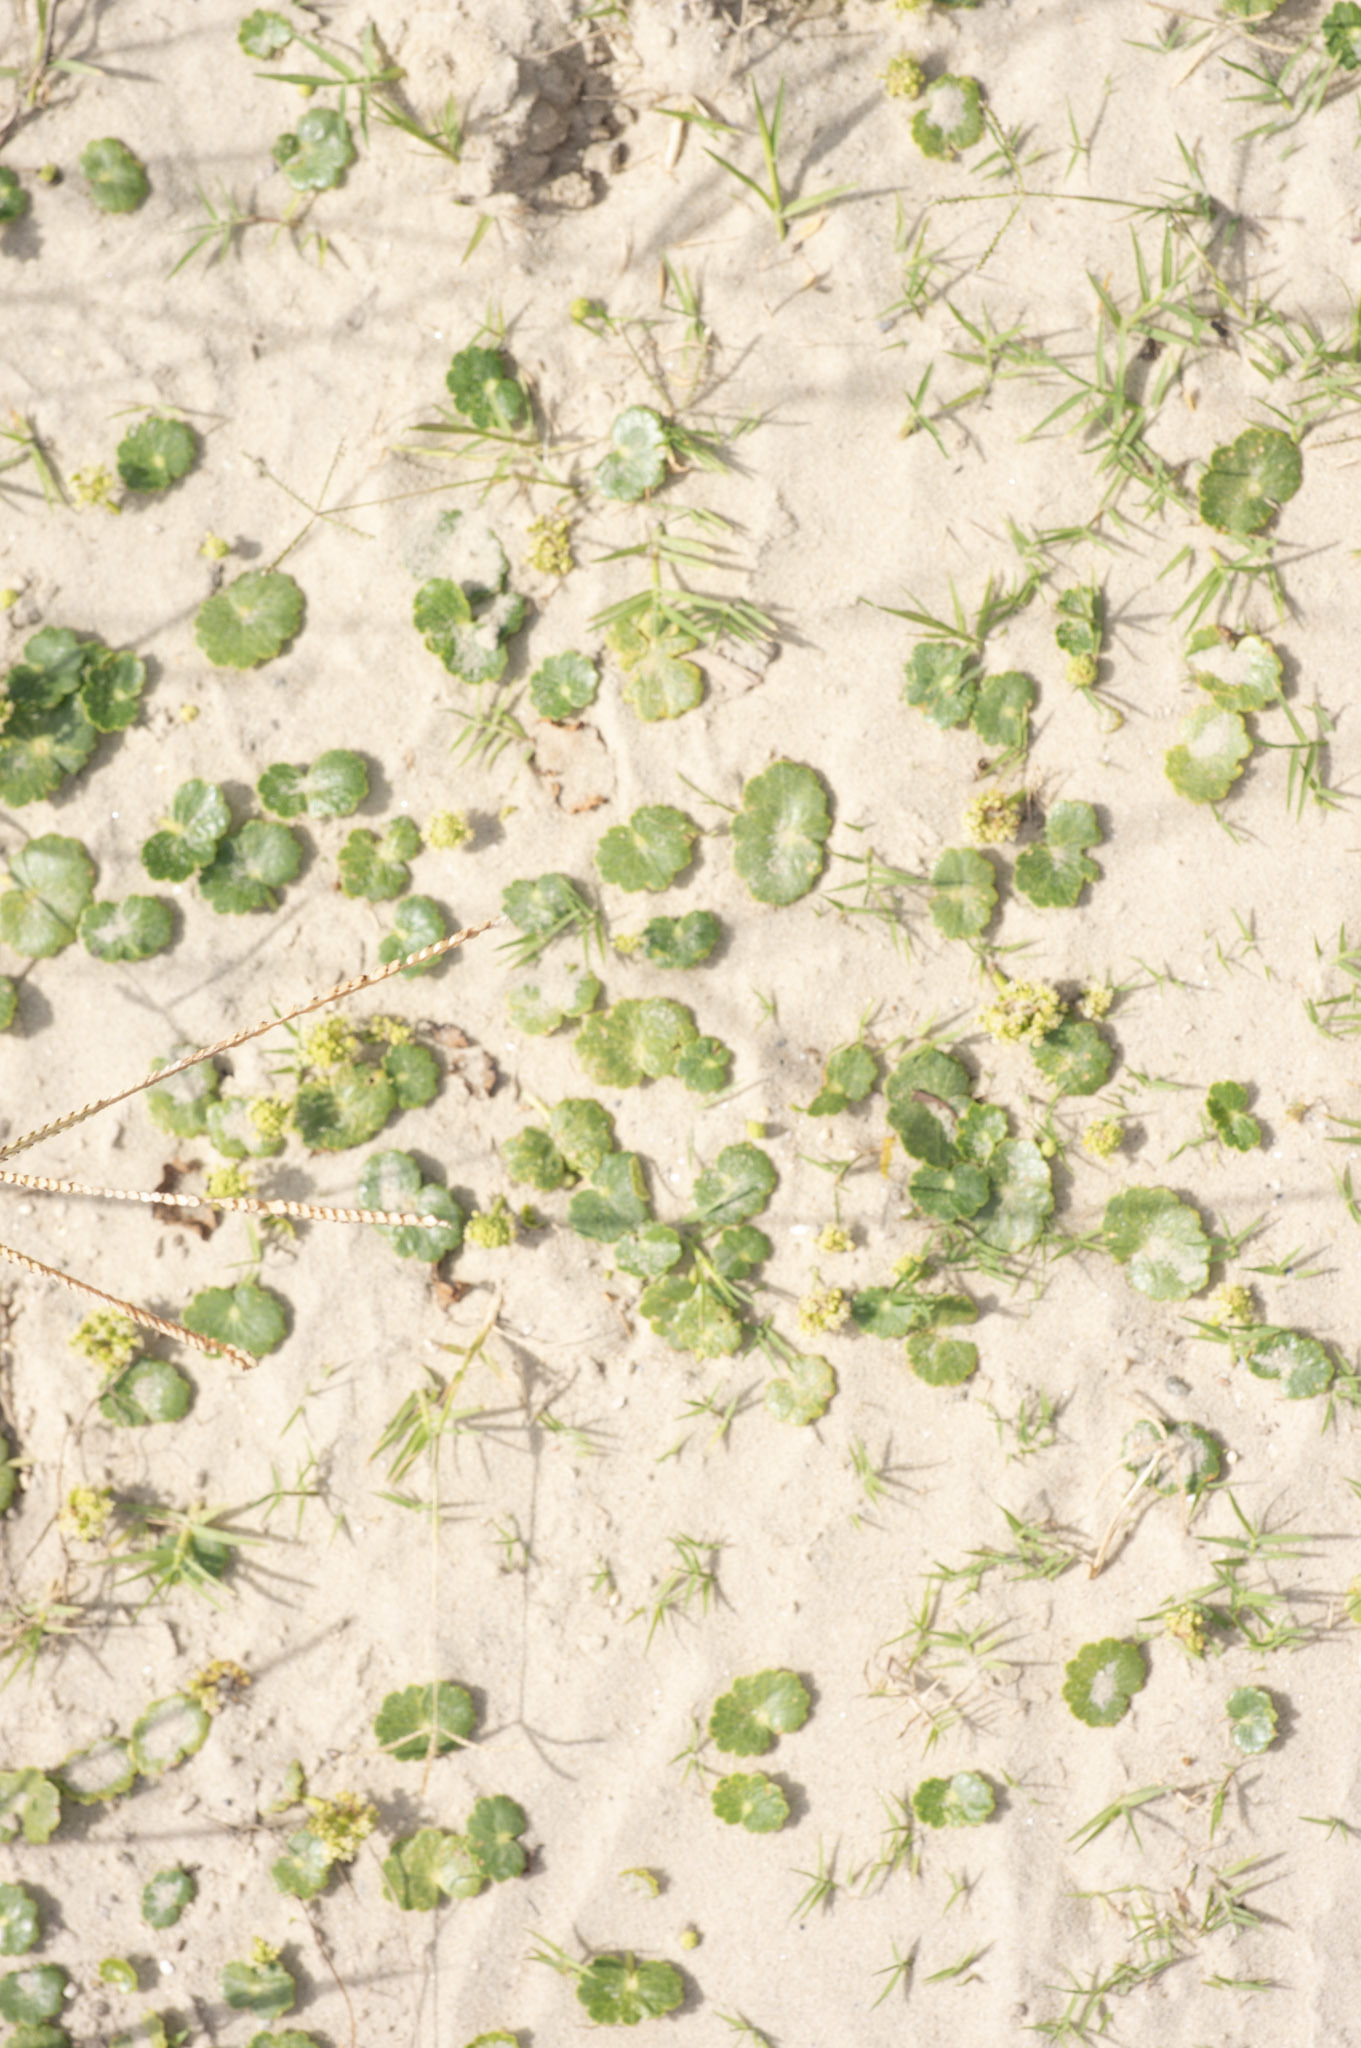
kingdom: Plantae
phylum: Tracheophyta
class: Magnoliopsida
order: Apiales
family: Araliaceae
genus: Hydrocotyle
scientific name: Hydrocotyle bonariensis
